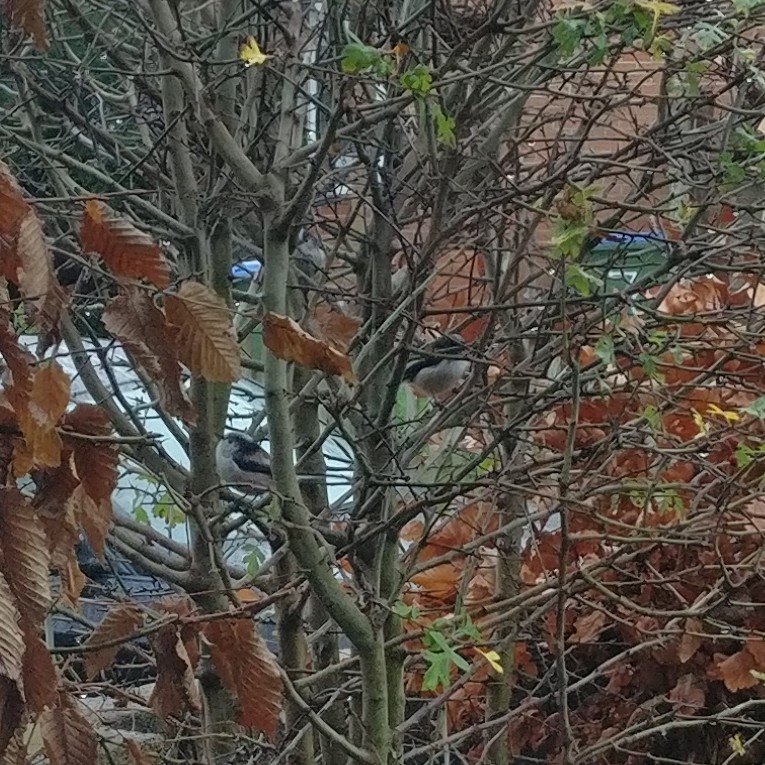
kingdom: Animalia
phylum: Chordata
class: Aves
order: Passeriformes
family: Aegithalidae
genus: Aegithalos
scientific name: Aegithalos caudatus
